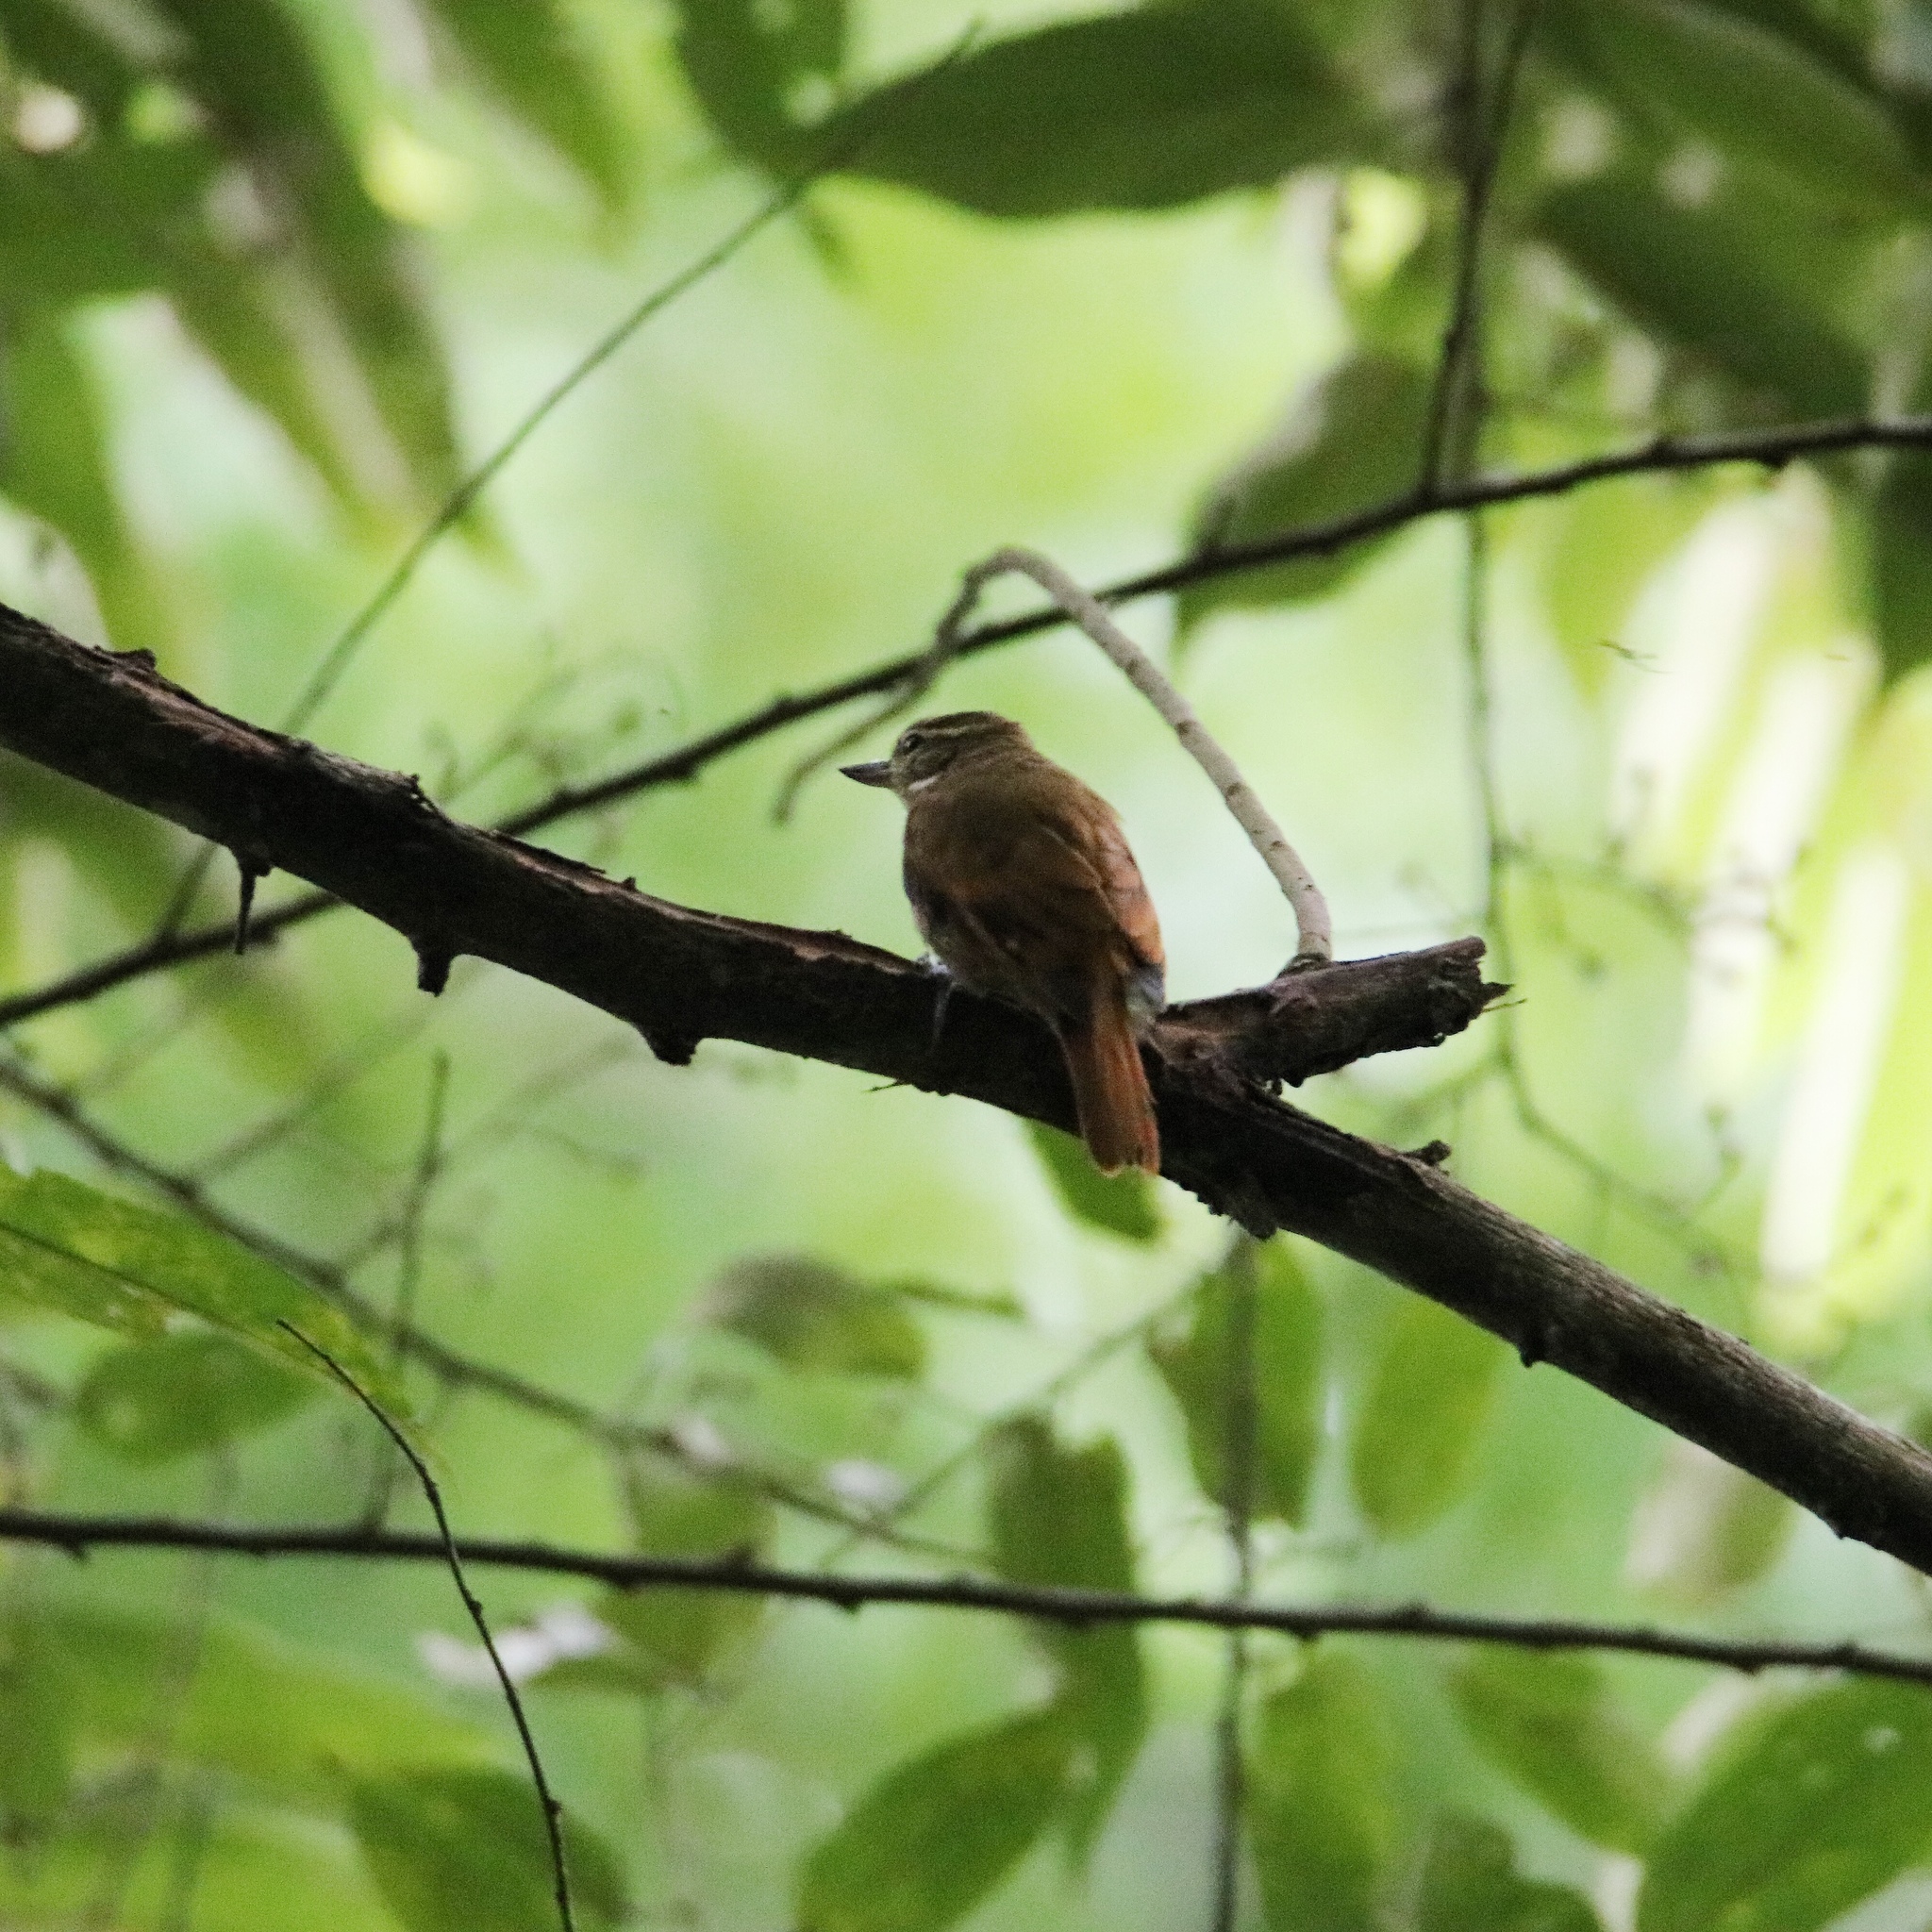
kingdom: Animalia
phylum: Chordata
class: Aves
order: Passeriformes
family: Furnariidae
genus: Xenops
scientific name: Xenops minutus
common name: Plain xenops
